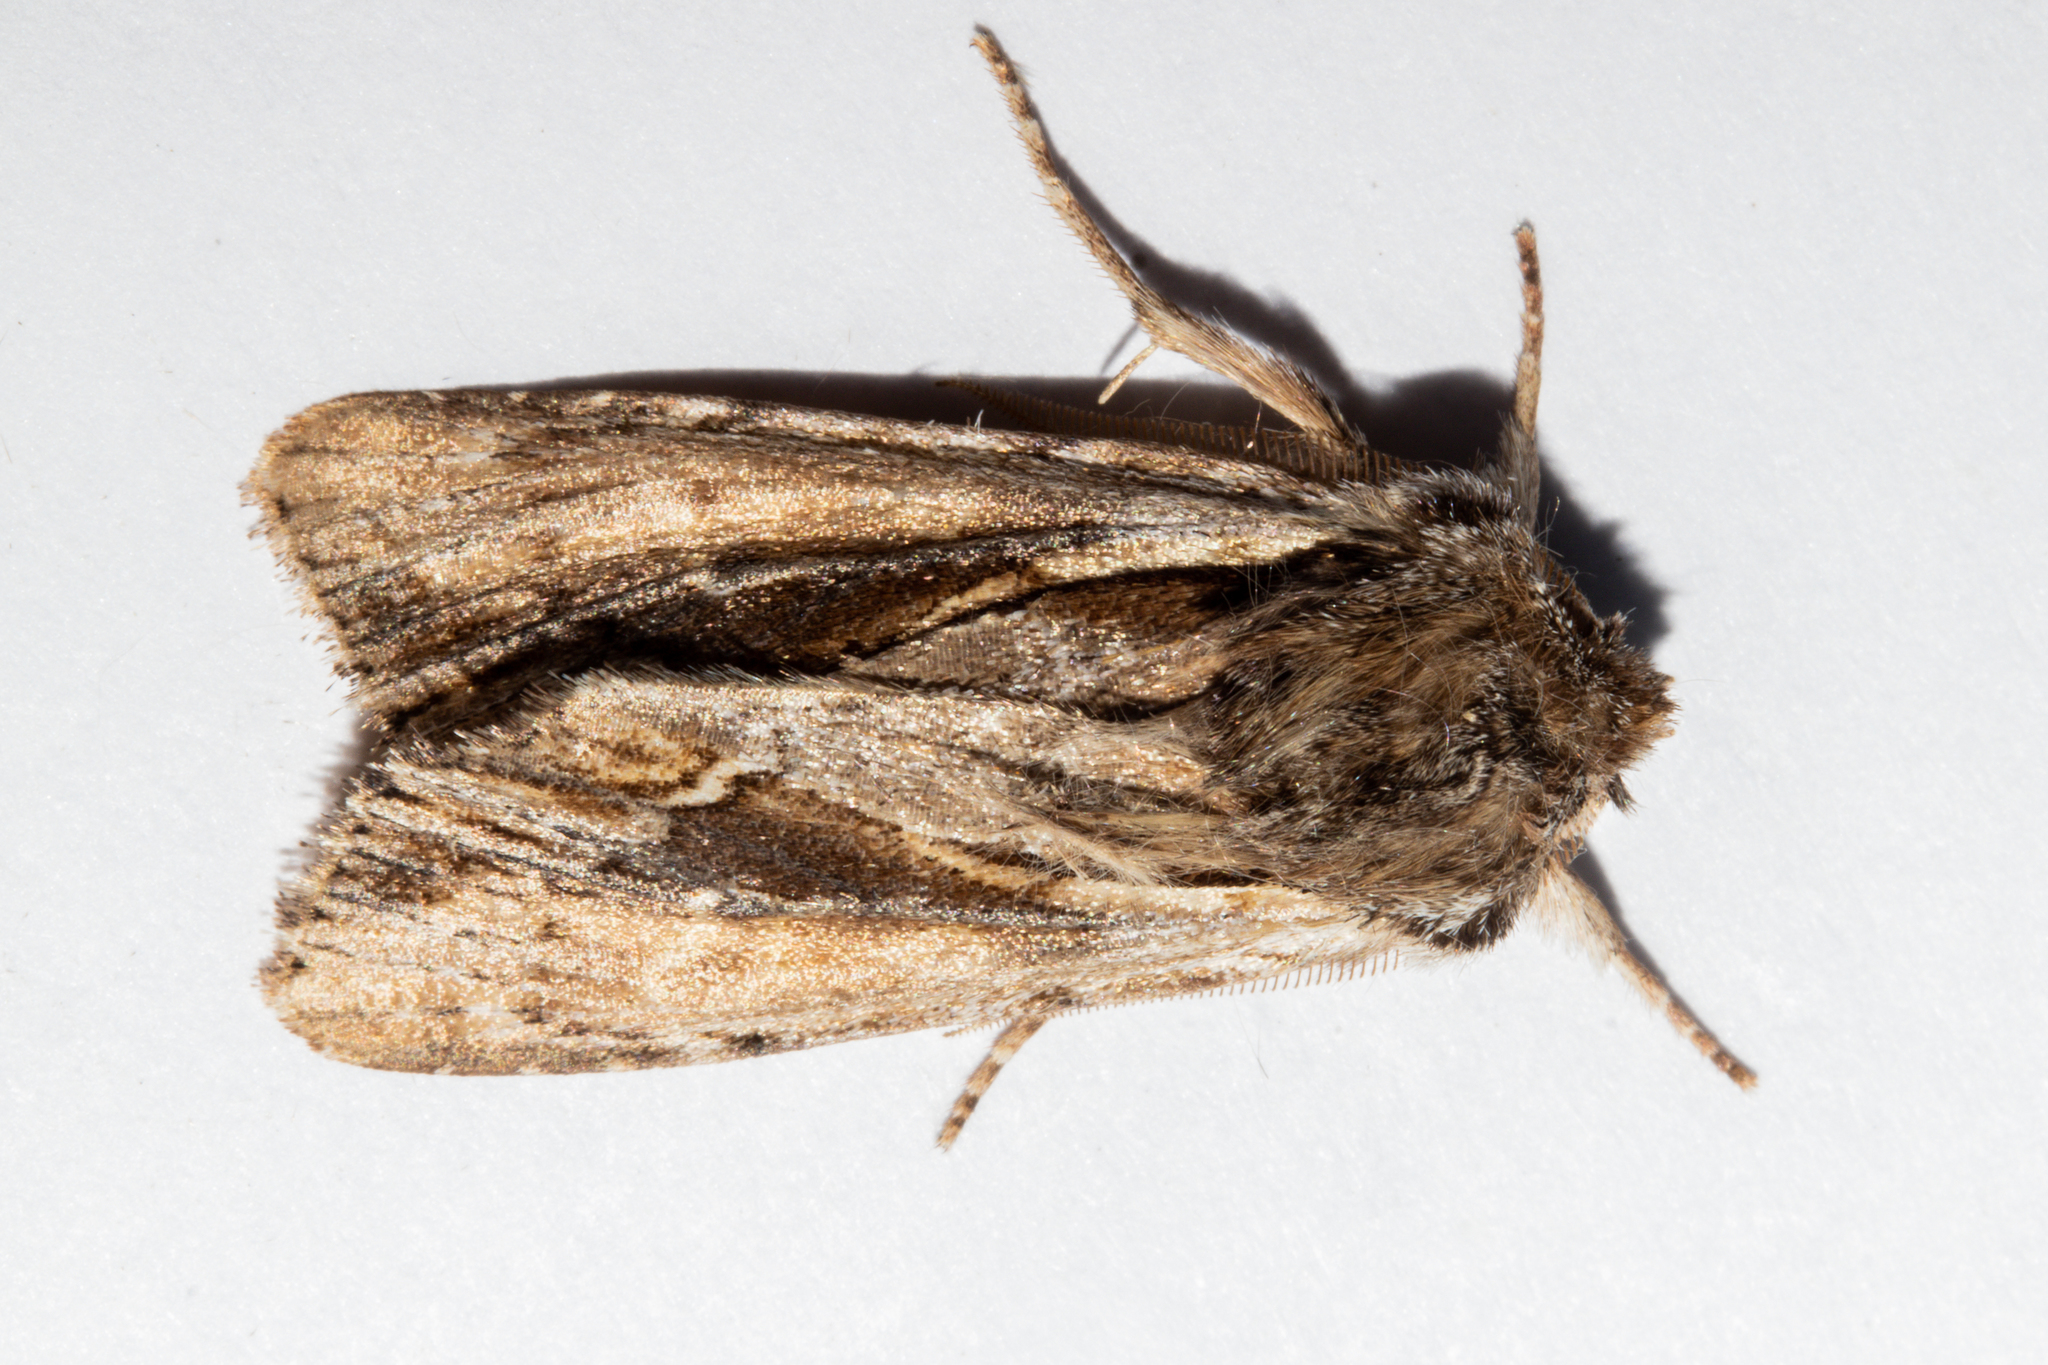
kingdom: Animalia
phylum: Arthropoda
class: Insecta
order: Lepidoptera
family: Noctuidae
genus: Ichneutica
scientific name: Ichneutica
